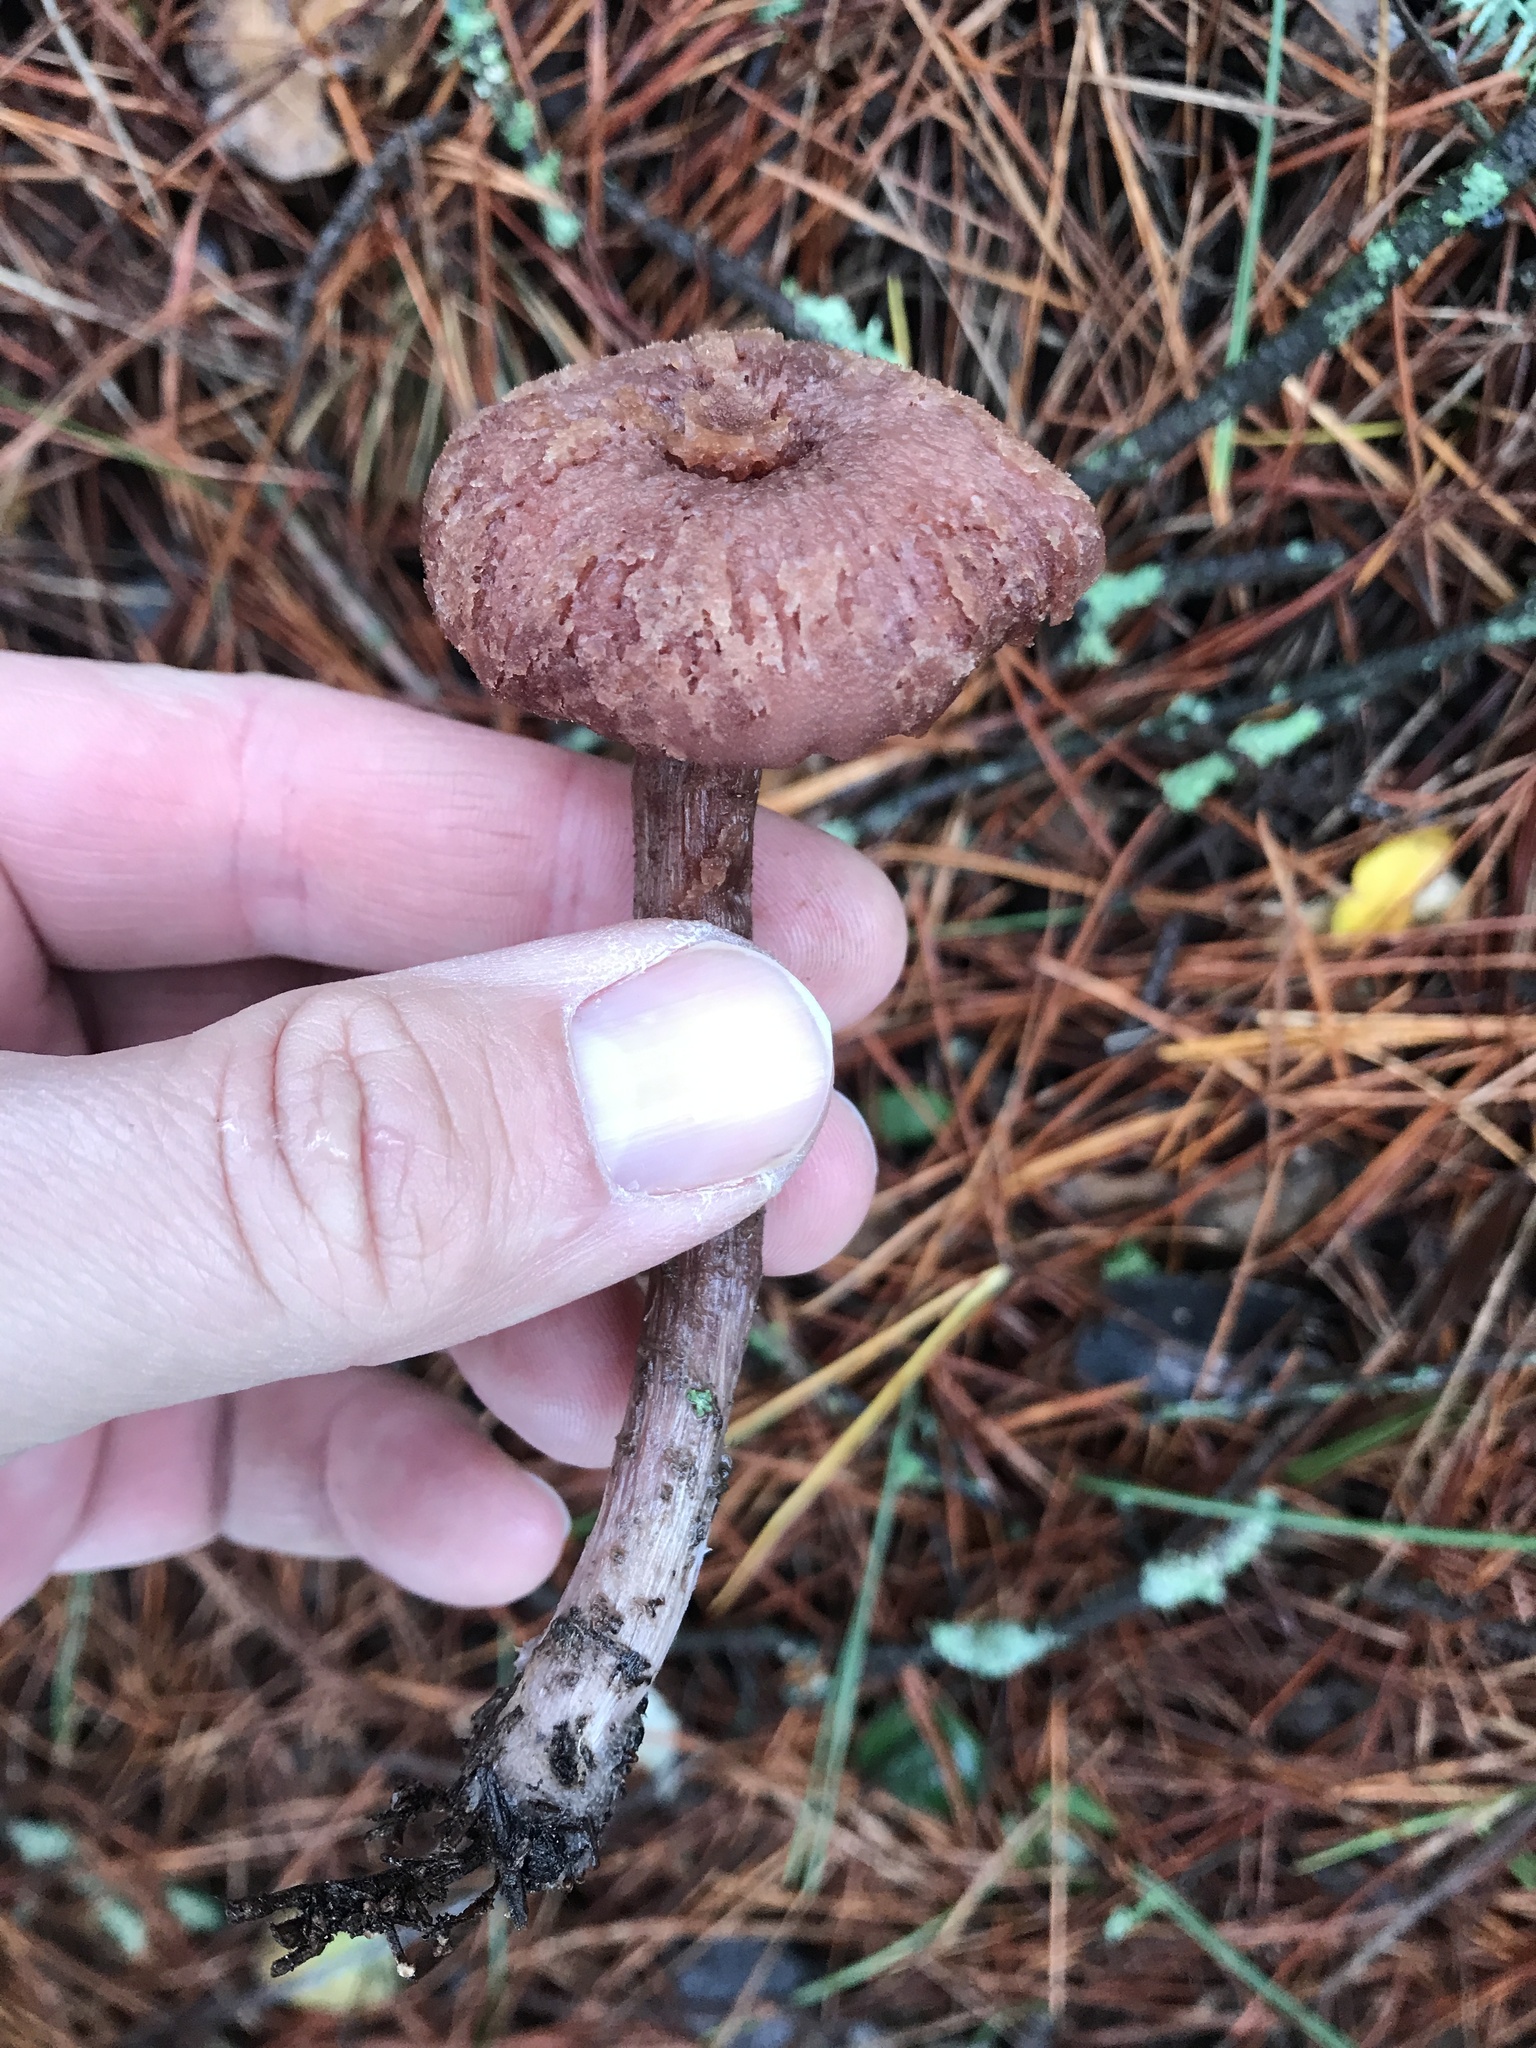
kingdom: Fungi
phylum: Basidiomycota
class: Agaricomycetes
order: Agaricales
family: Hydnangiaceae
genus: Laccaria
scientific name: Laccaria amethysteo-occidentalis
